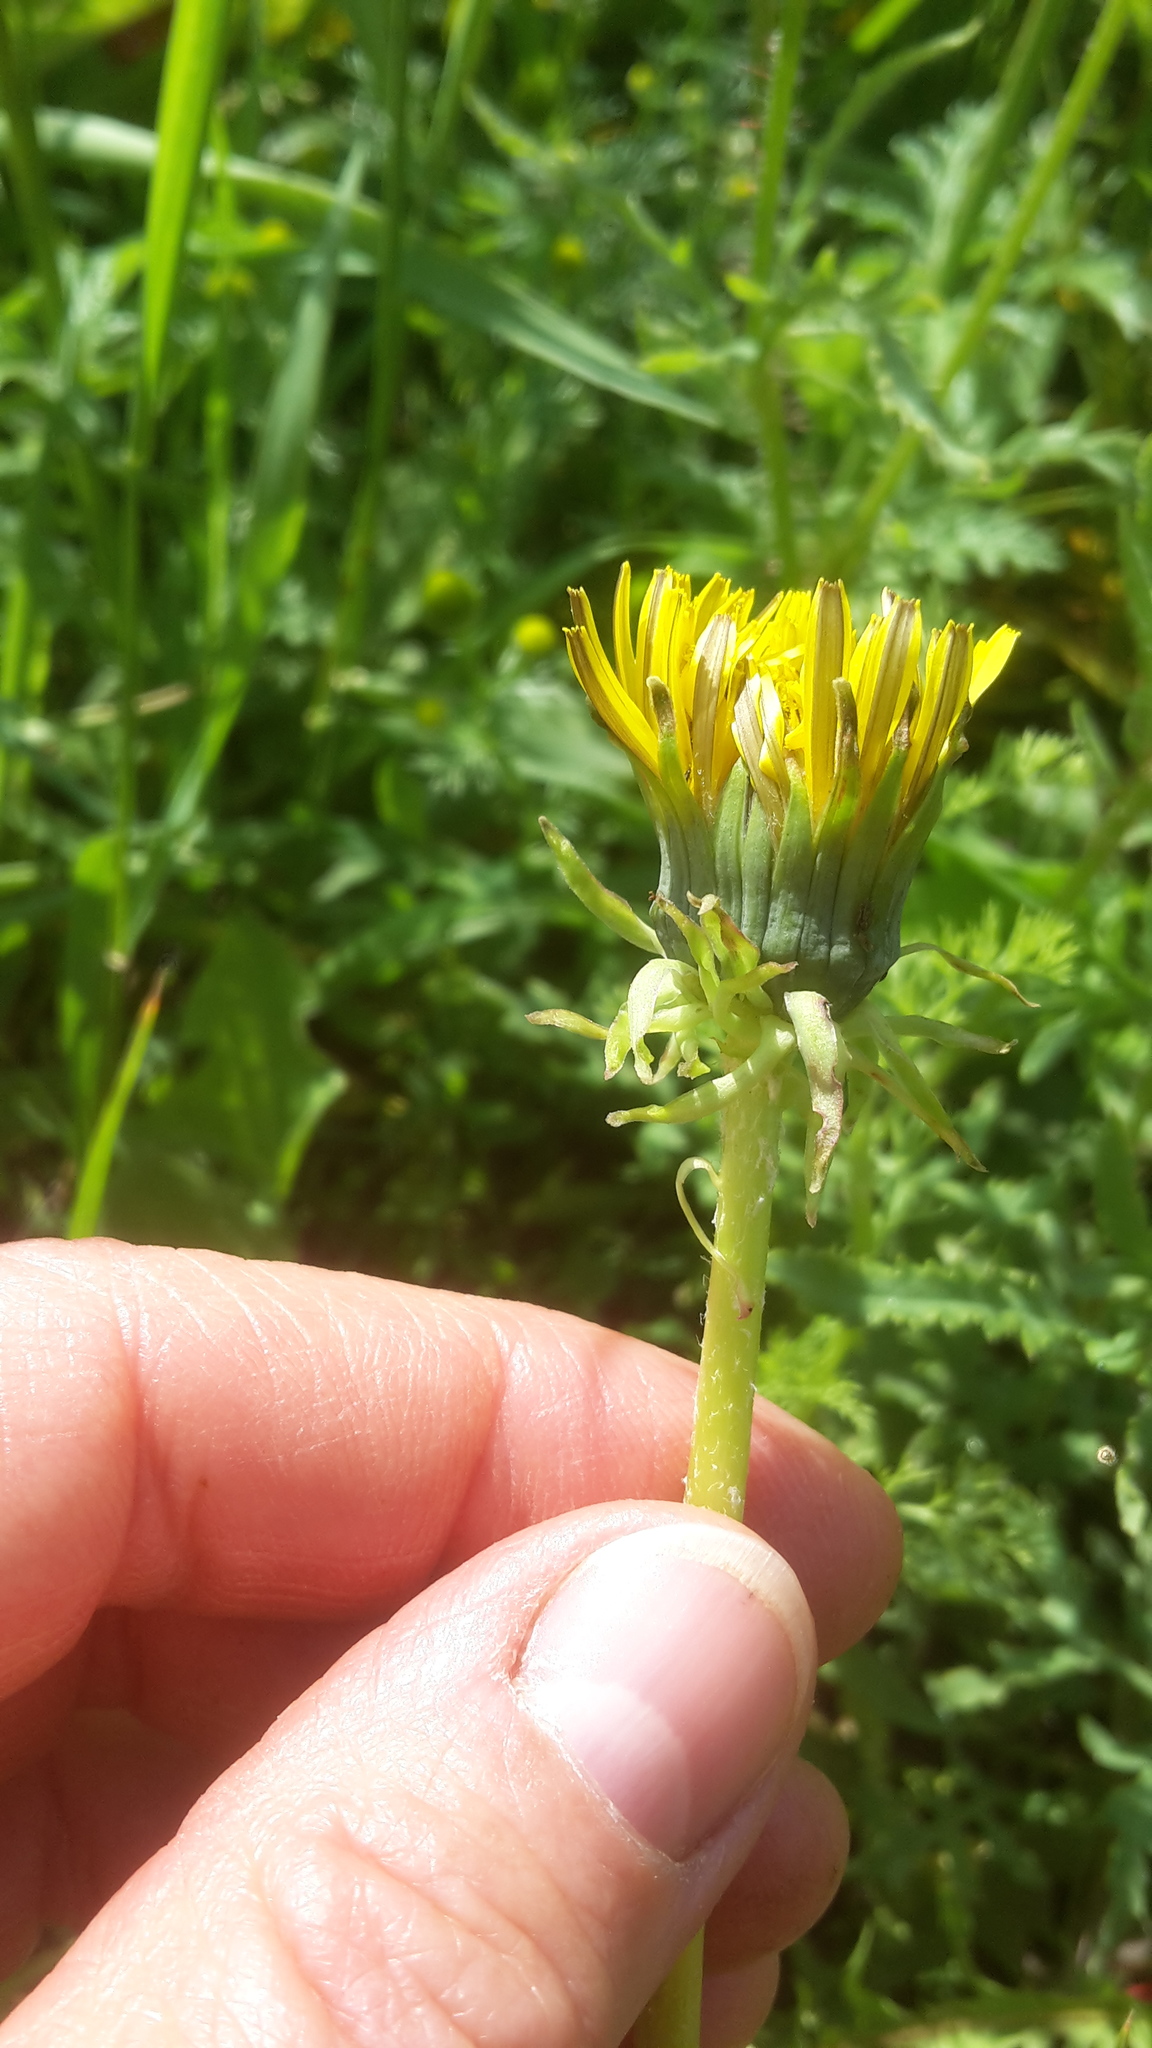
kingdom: Plantae
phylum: Tracheophyta
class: Magnoliopsida
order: Asterales
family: Asteraceae
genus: Taraxacum
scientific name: Taraxacum officinale
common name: Common dandelion
